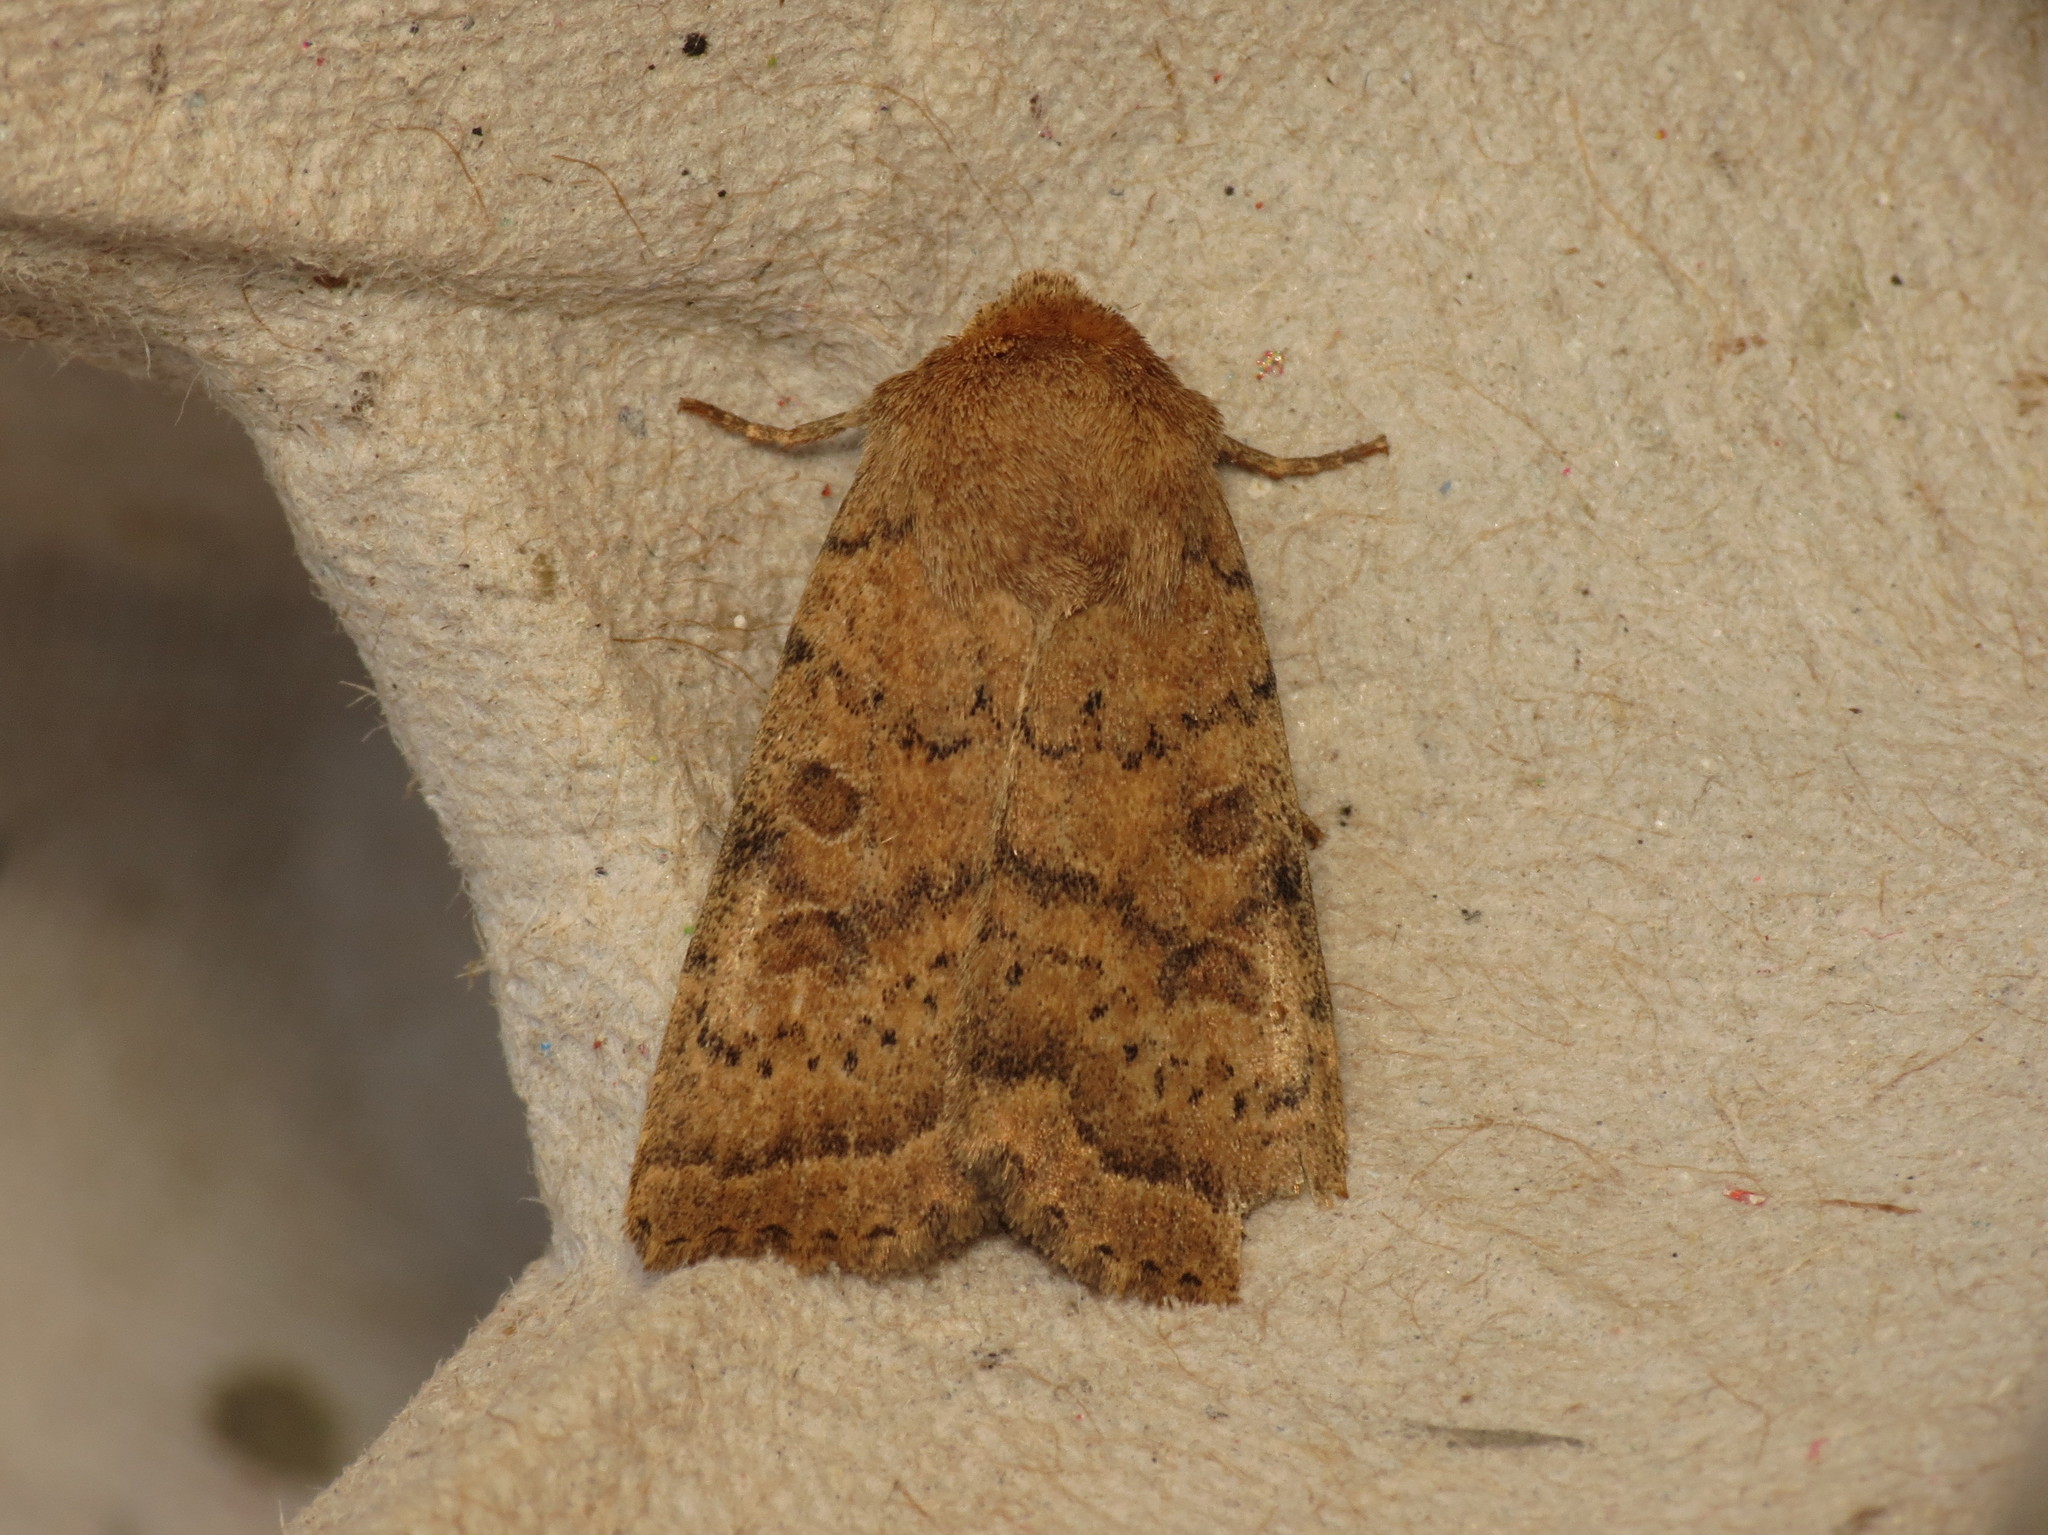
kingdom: Animalia
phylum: Arthropoda
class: Insecta
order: Lepidoptera
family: Noctuidae
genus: Hoplodrina
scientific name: Hoplodrina octogenaria
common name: Uncertain
